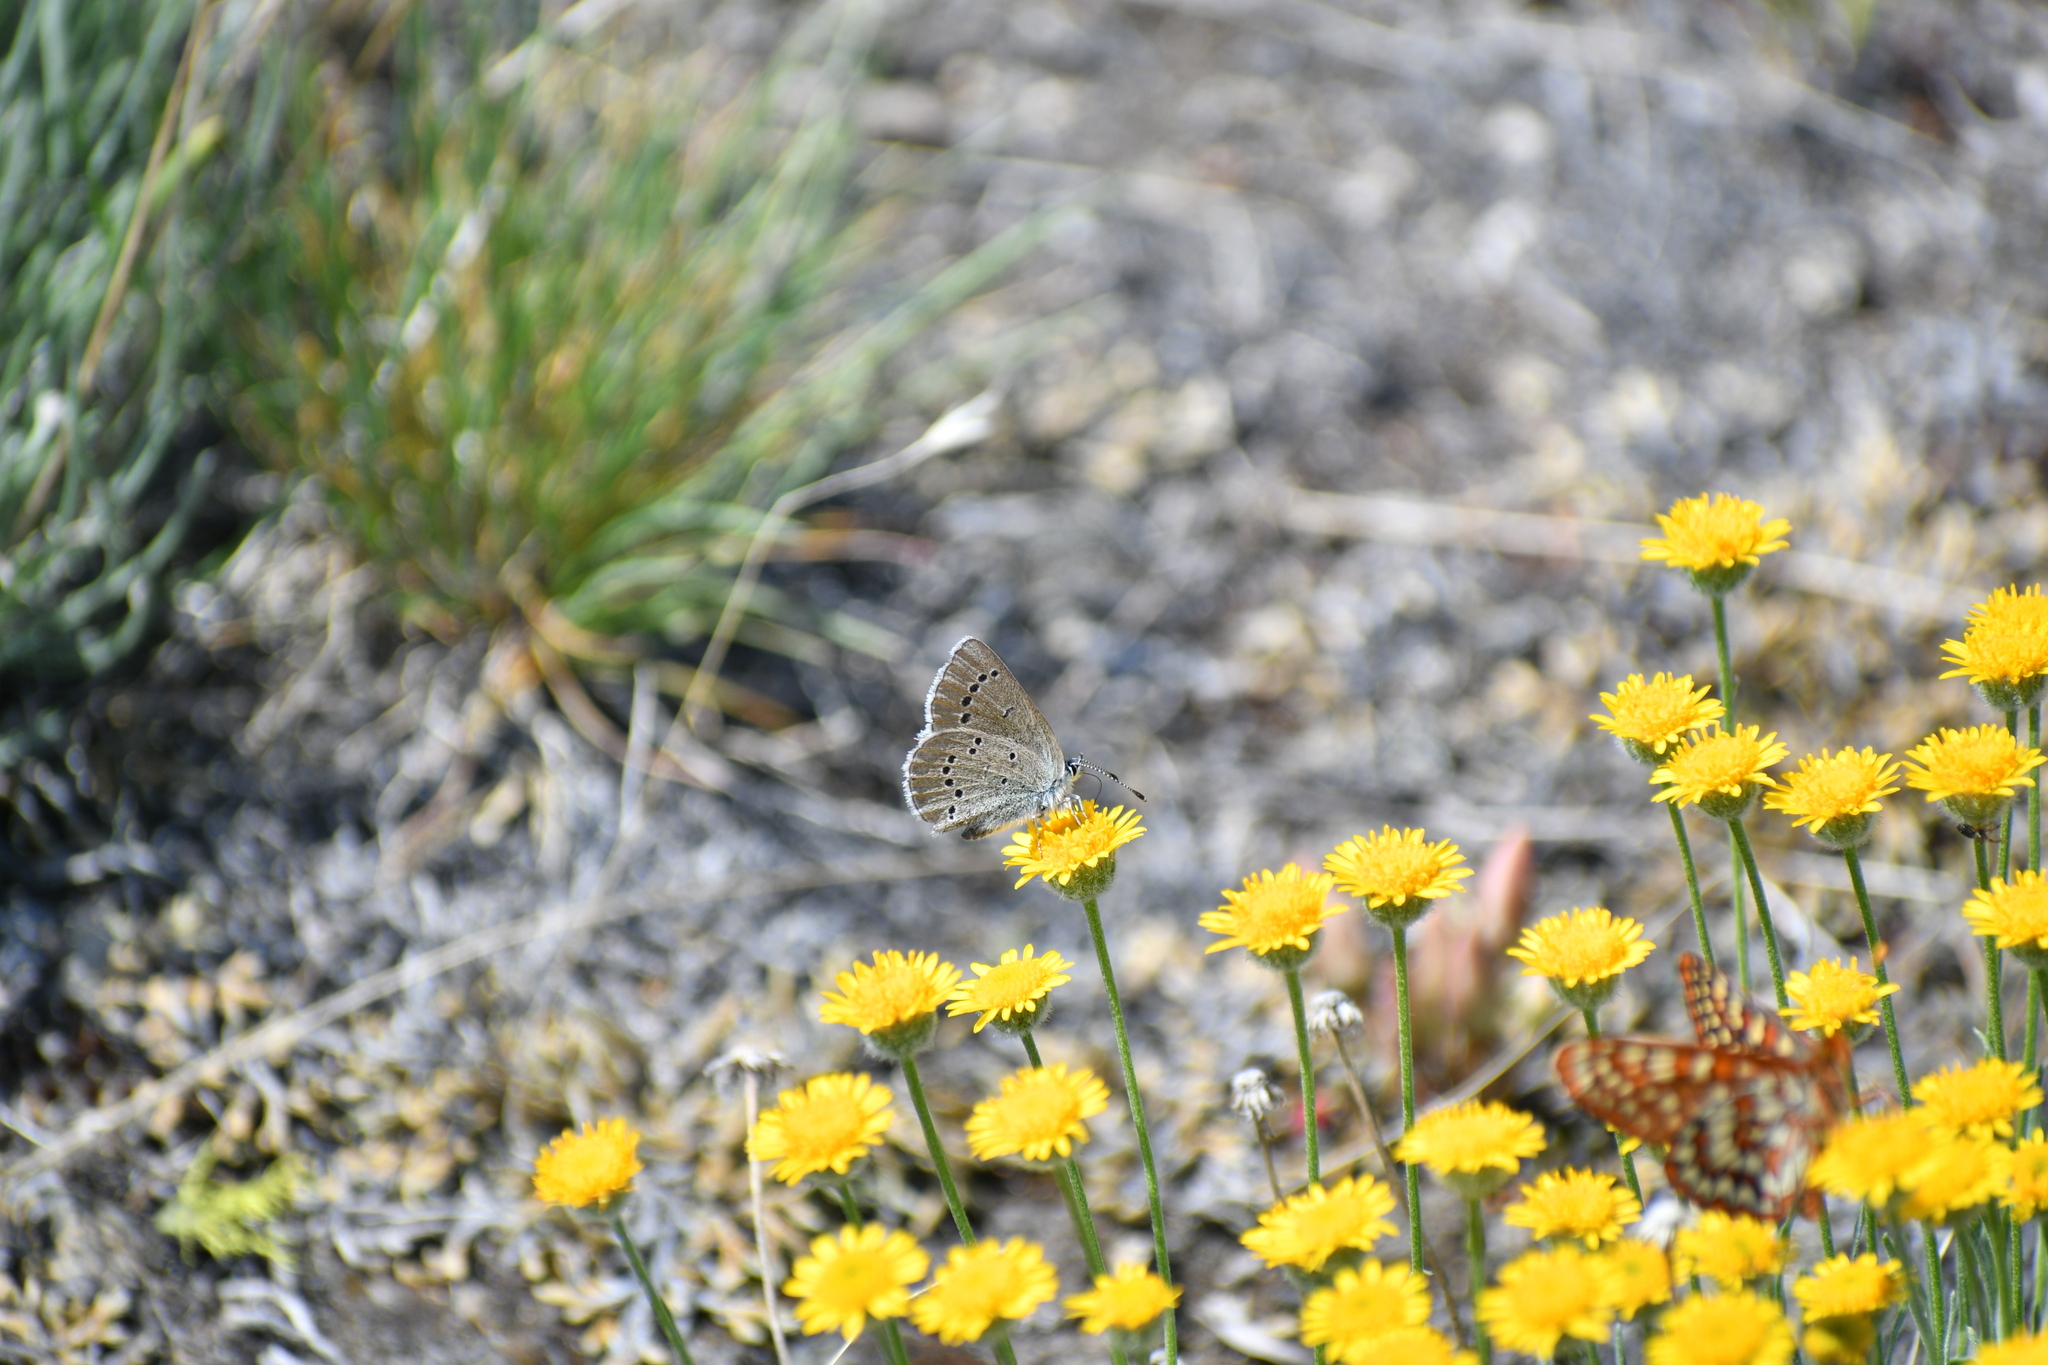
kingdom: Animalia
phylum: Arthropoda
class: Insecta
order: Lepidoptera
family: Lycaenidae
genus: Glaucopsyche
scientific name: Glaucopsyche lygdamus
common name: Silvery blue
